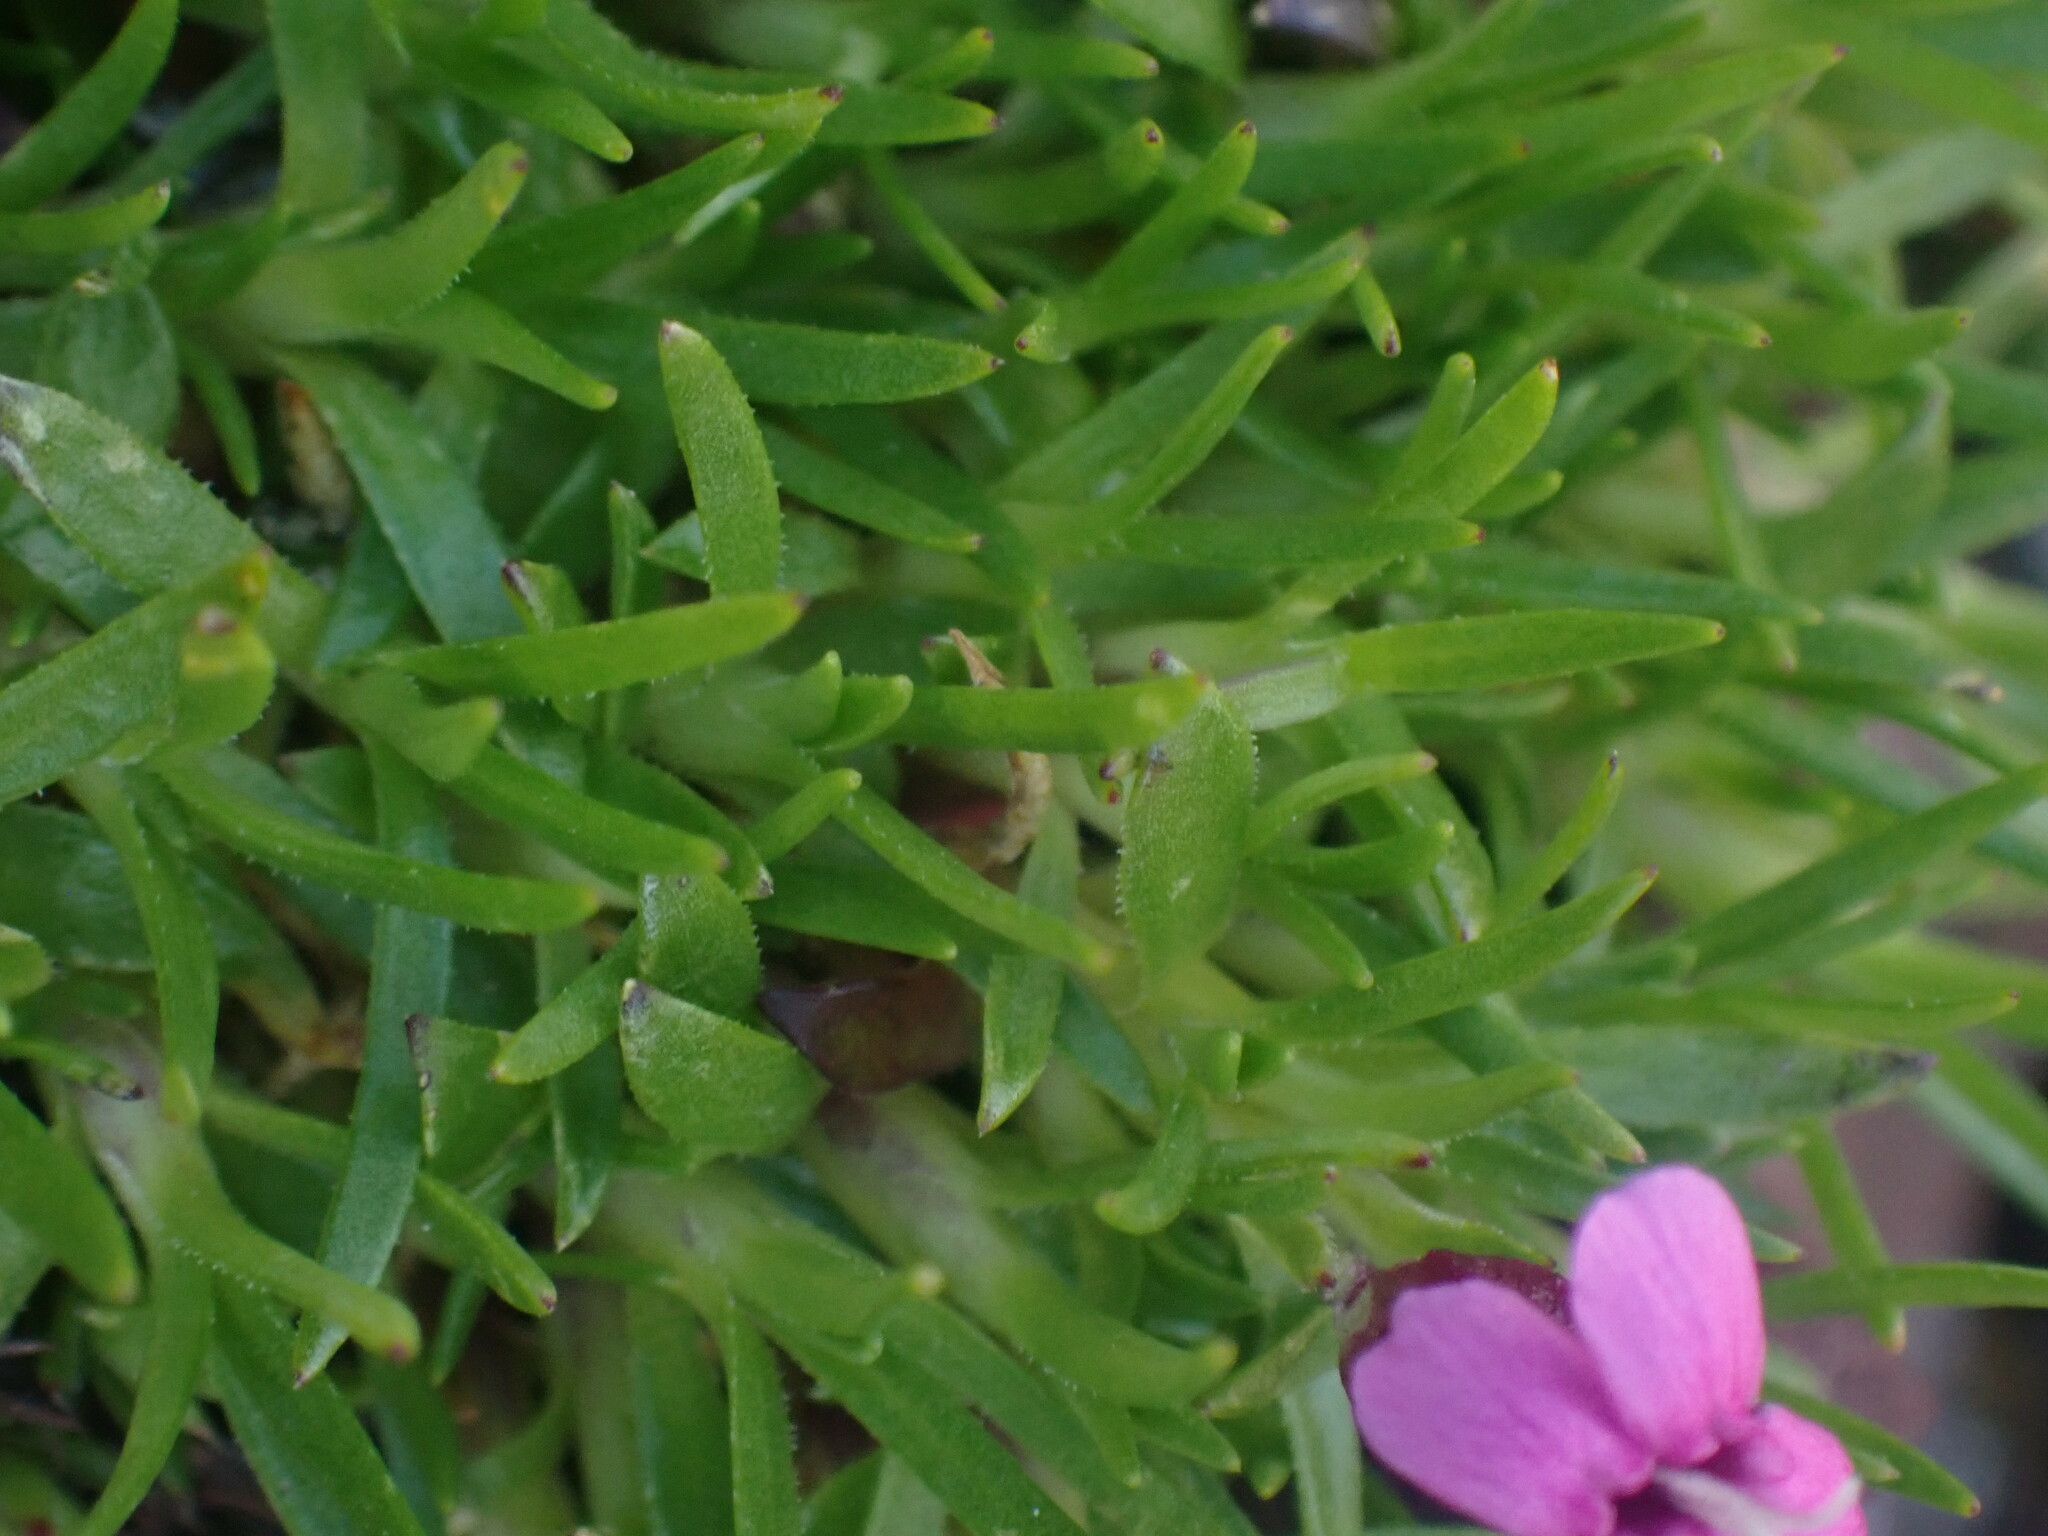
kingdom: Plantae
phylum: Tracheophyta
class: Magnoliopsida
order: Caryophyllales
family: Caryophyllaceae
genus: Silene
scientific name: Silene acaulis
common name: Moss campion
